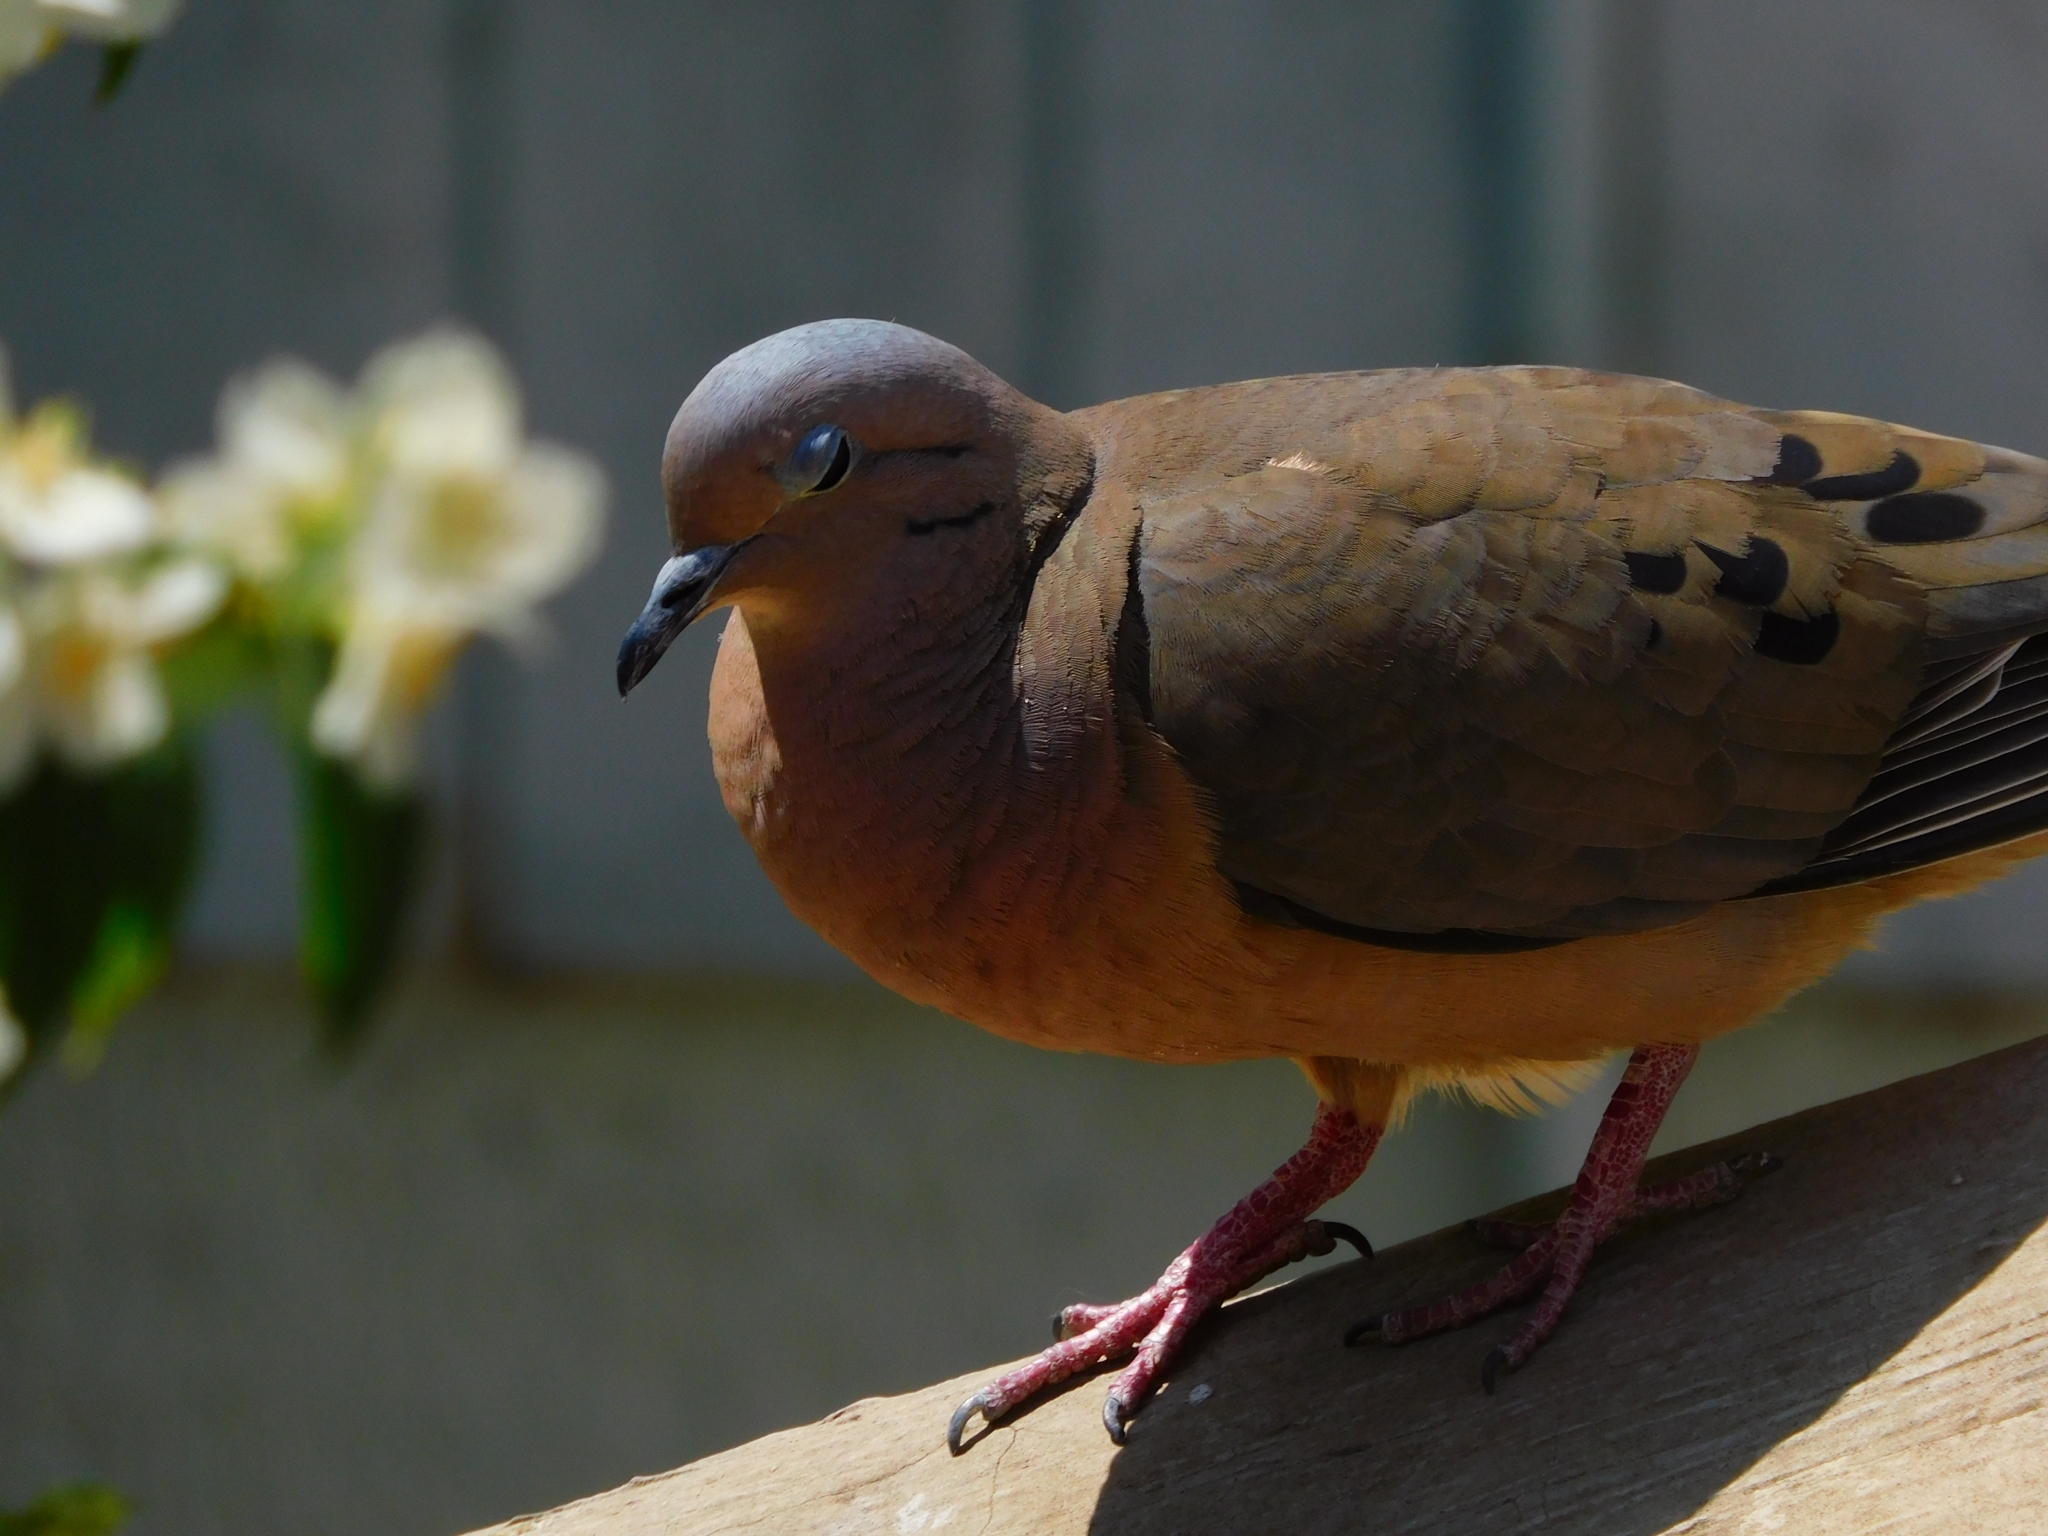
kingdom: Animalia
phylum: Chordata
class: Aves
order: Columbiformes
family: Columbidae
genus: Zenaida
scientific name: Zenaida auriculata
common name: Eared dove
